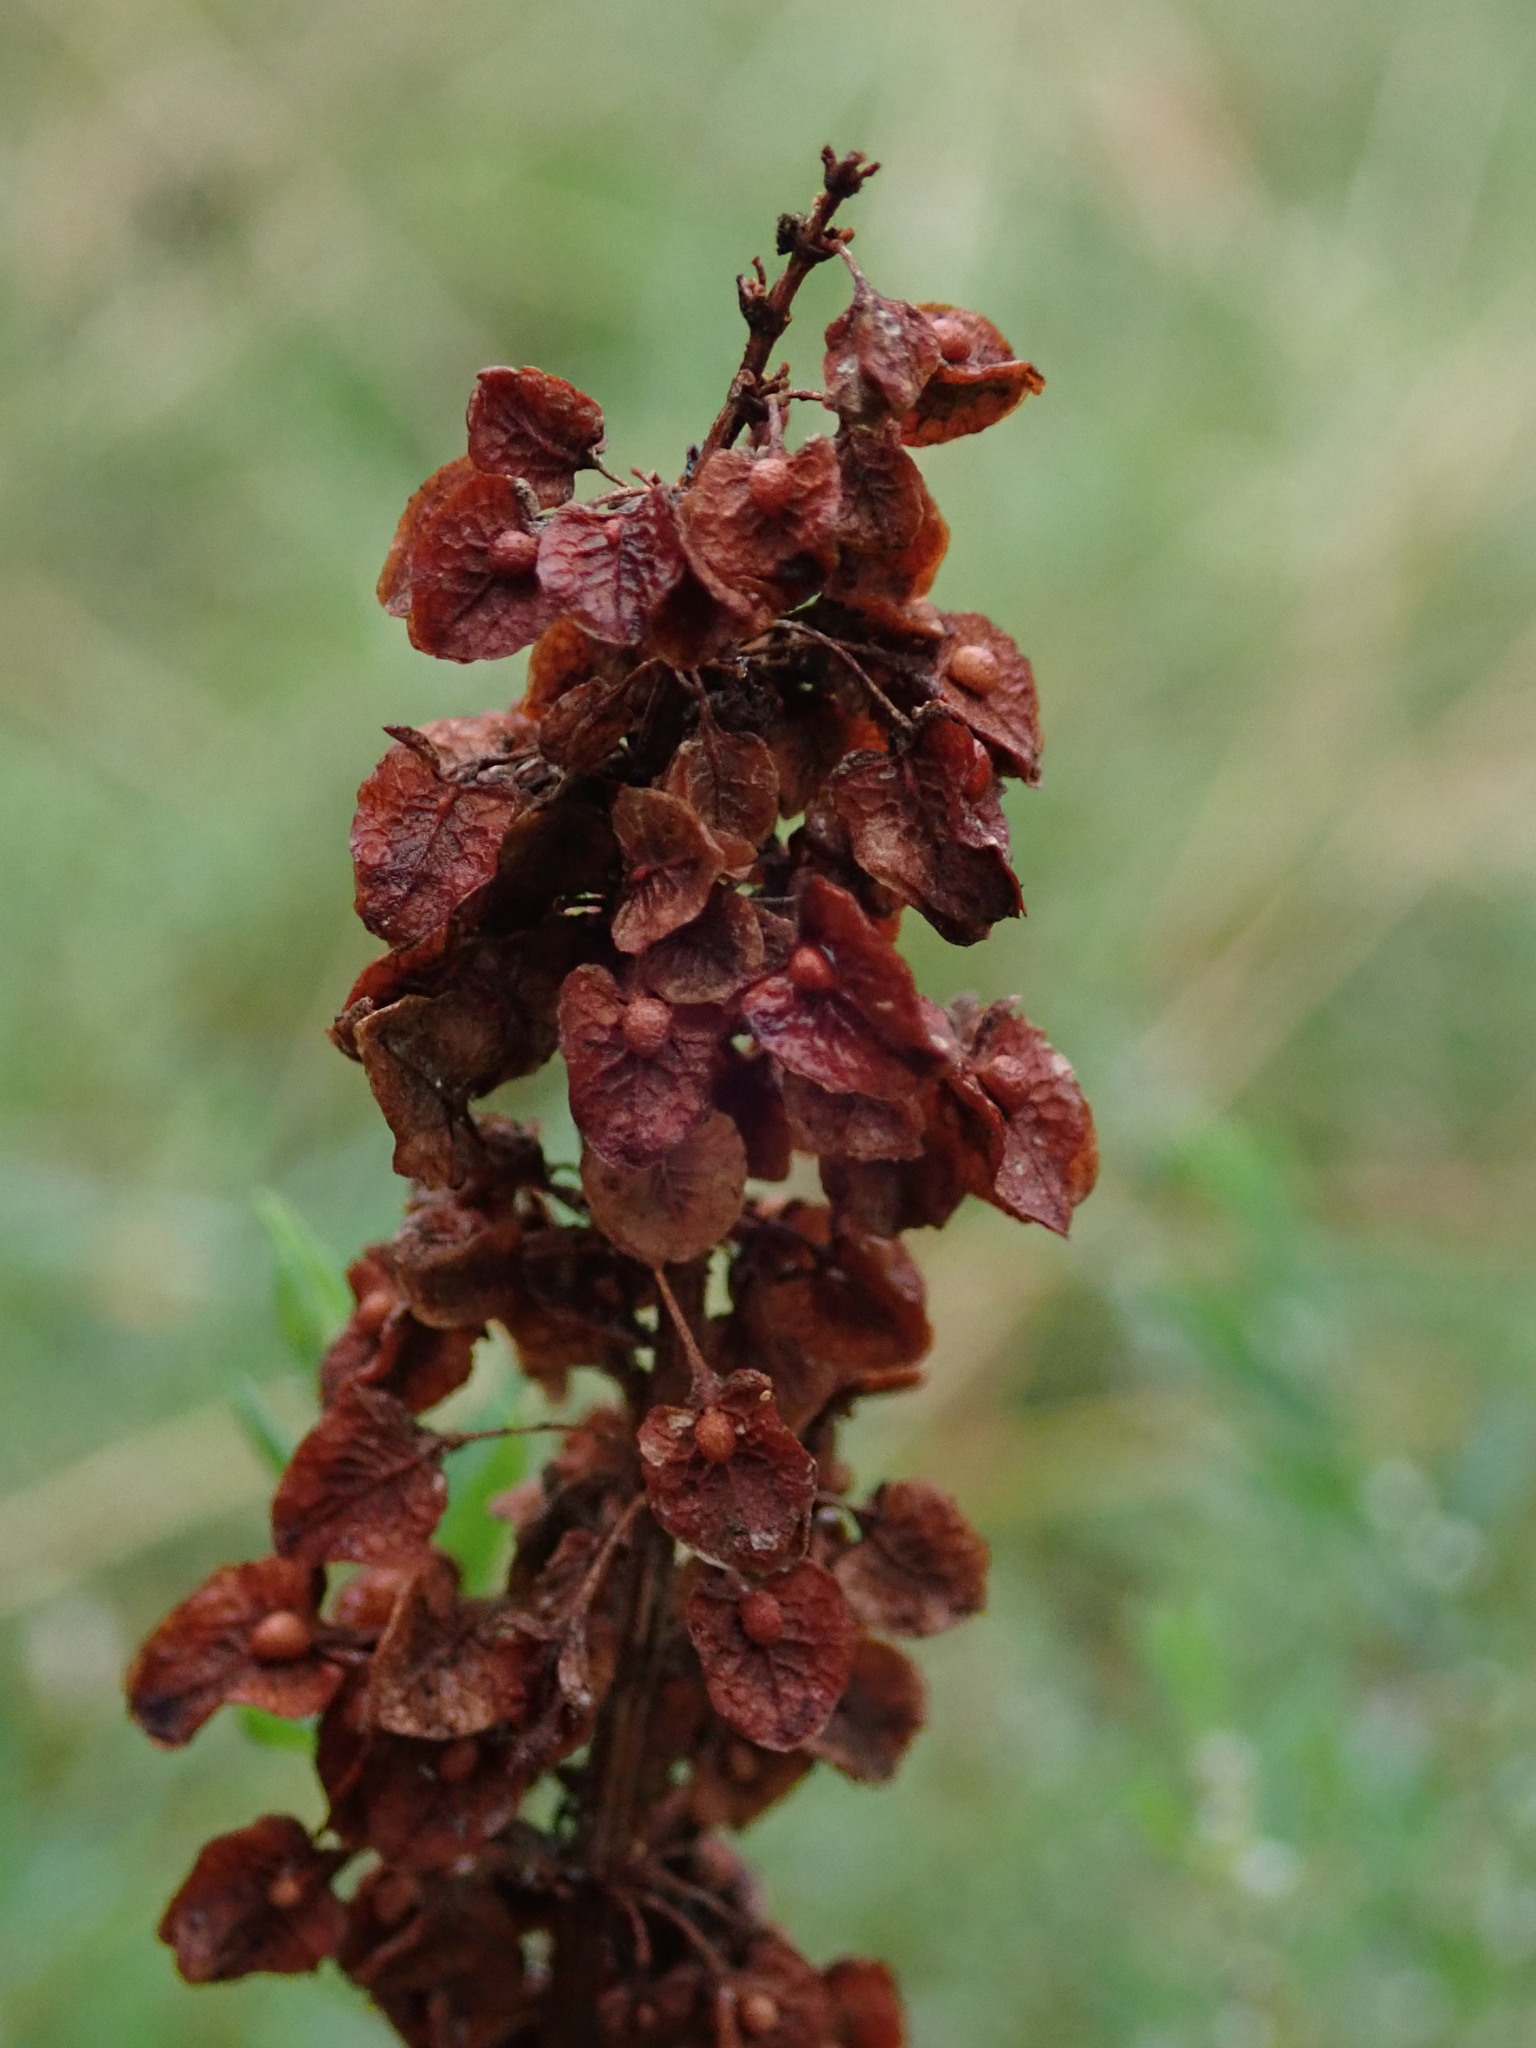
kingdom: Plantae
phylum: Tracheophyta
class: Magnoliopsida
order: Caryophyllales
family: Polygonaceae
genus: Rumex
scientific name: Rumex crispus
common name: Curled dock
